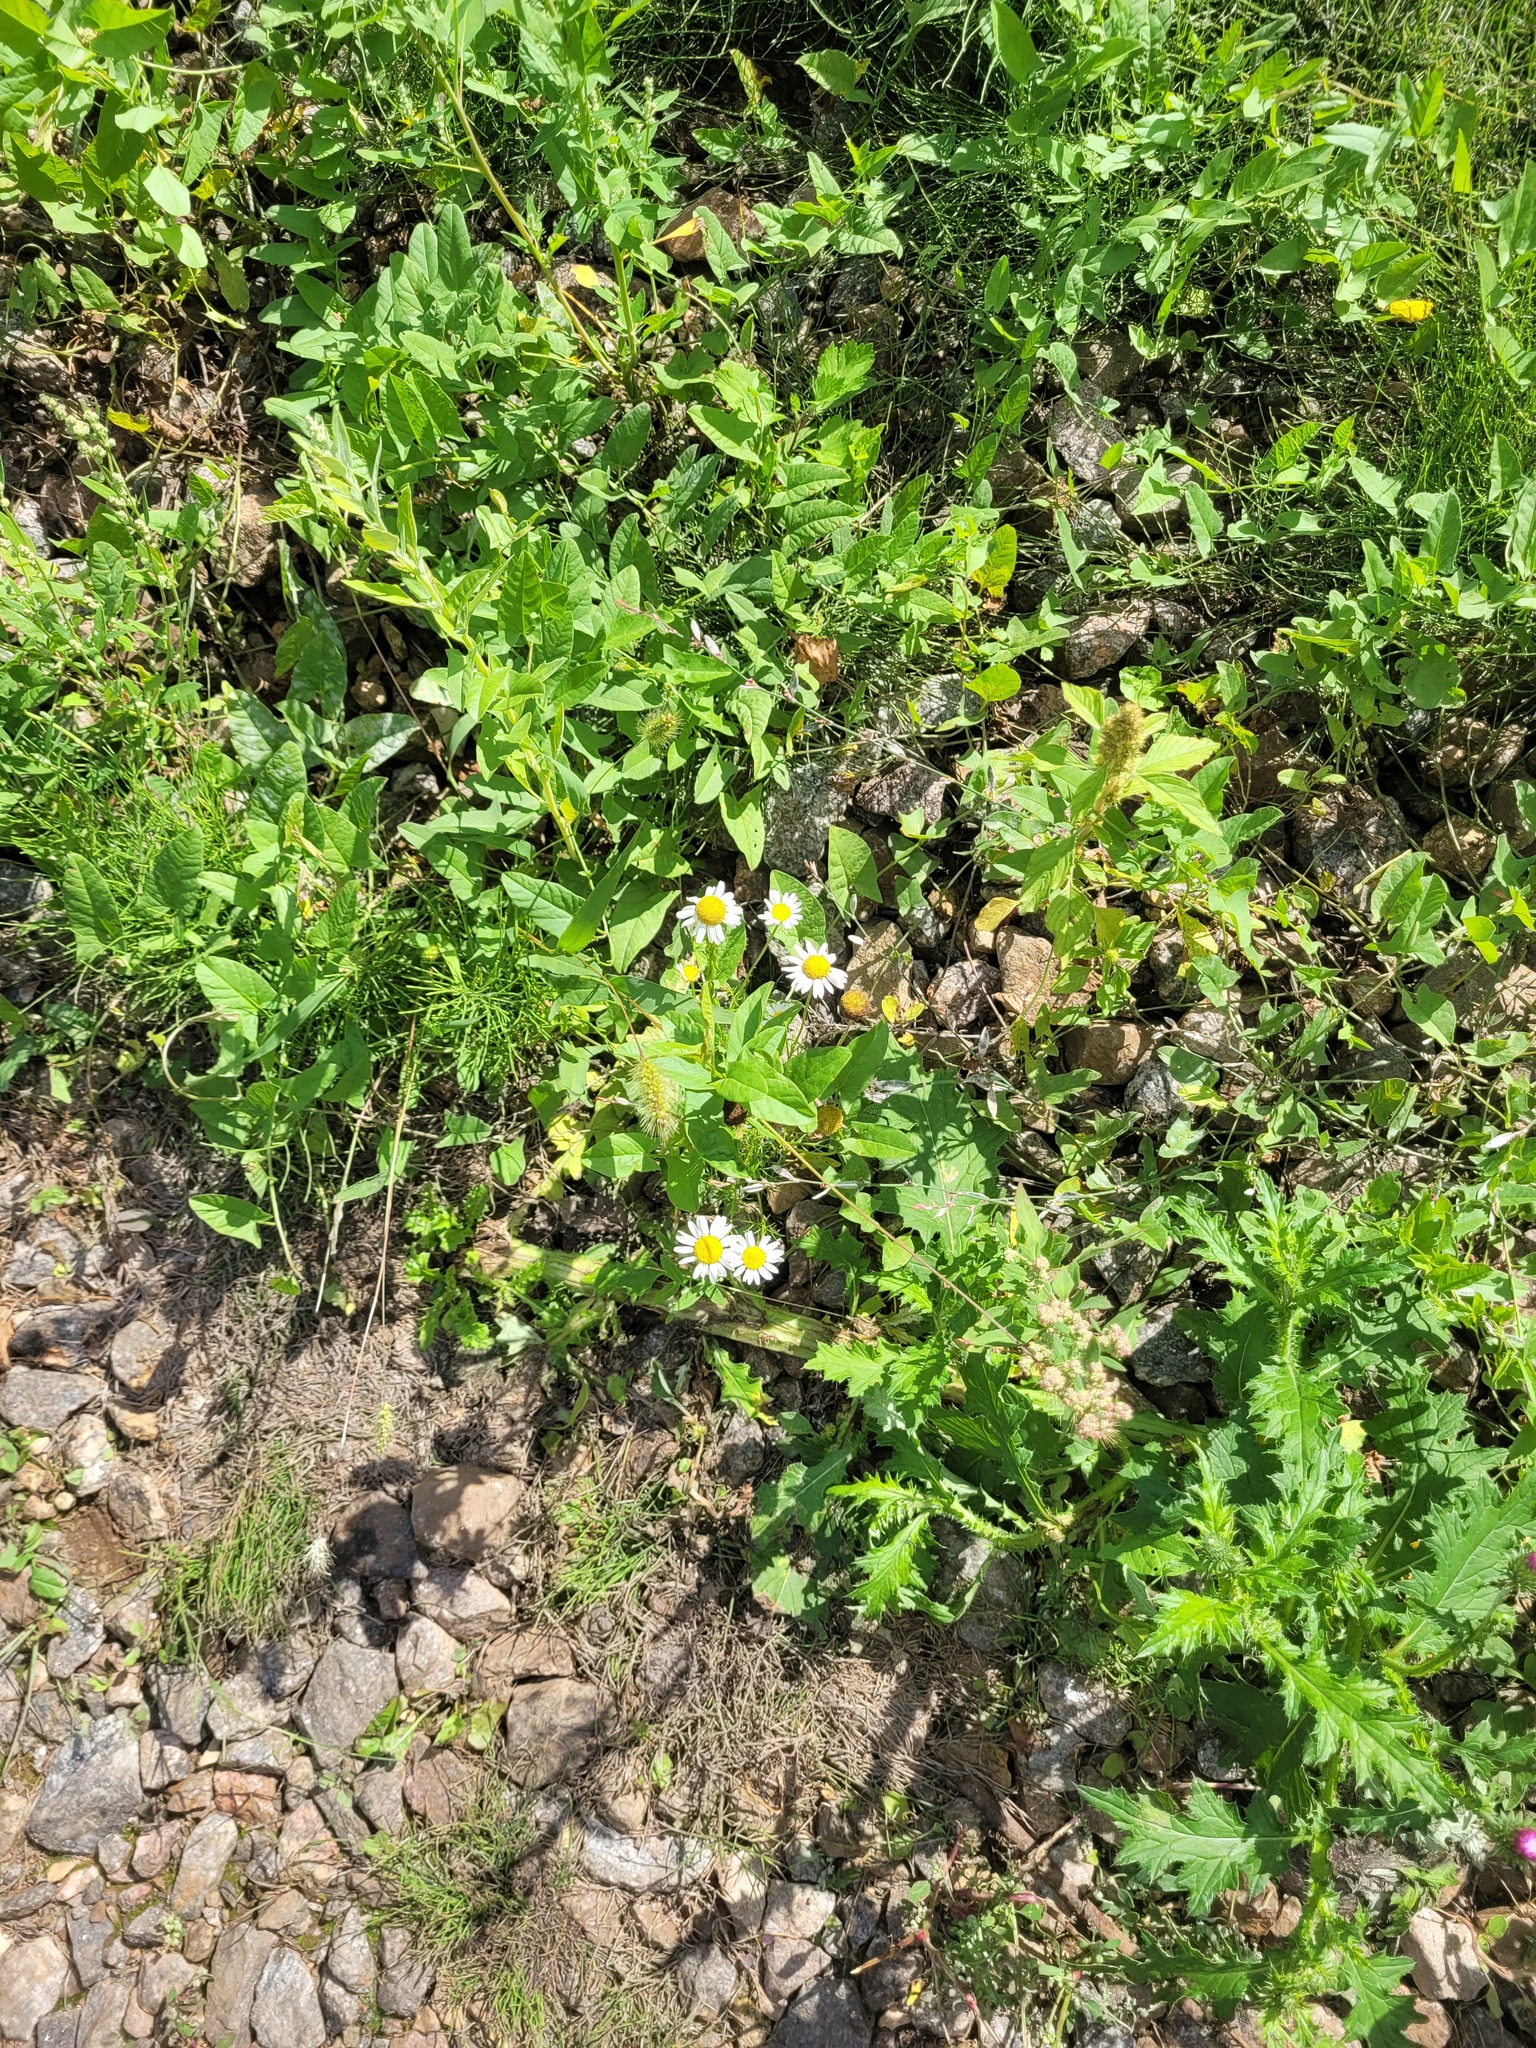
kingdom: Plantae
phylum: Tracheophyta
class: Magnoliopsida
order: Asterales
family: Asteraceae
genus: Tripleurospermum
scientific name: Tripleurospermum inodorum
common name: Scentless mayweed
